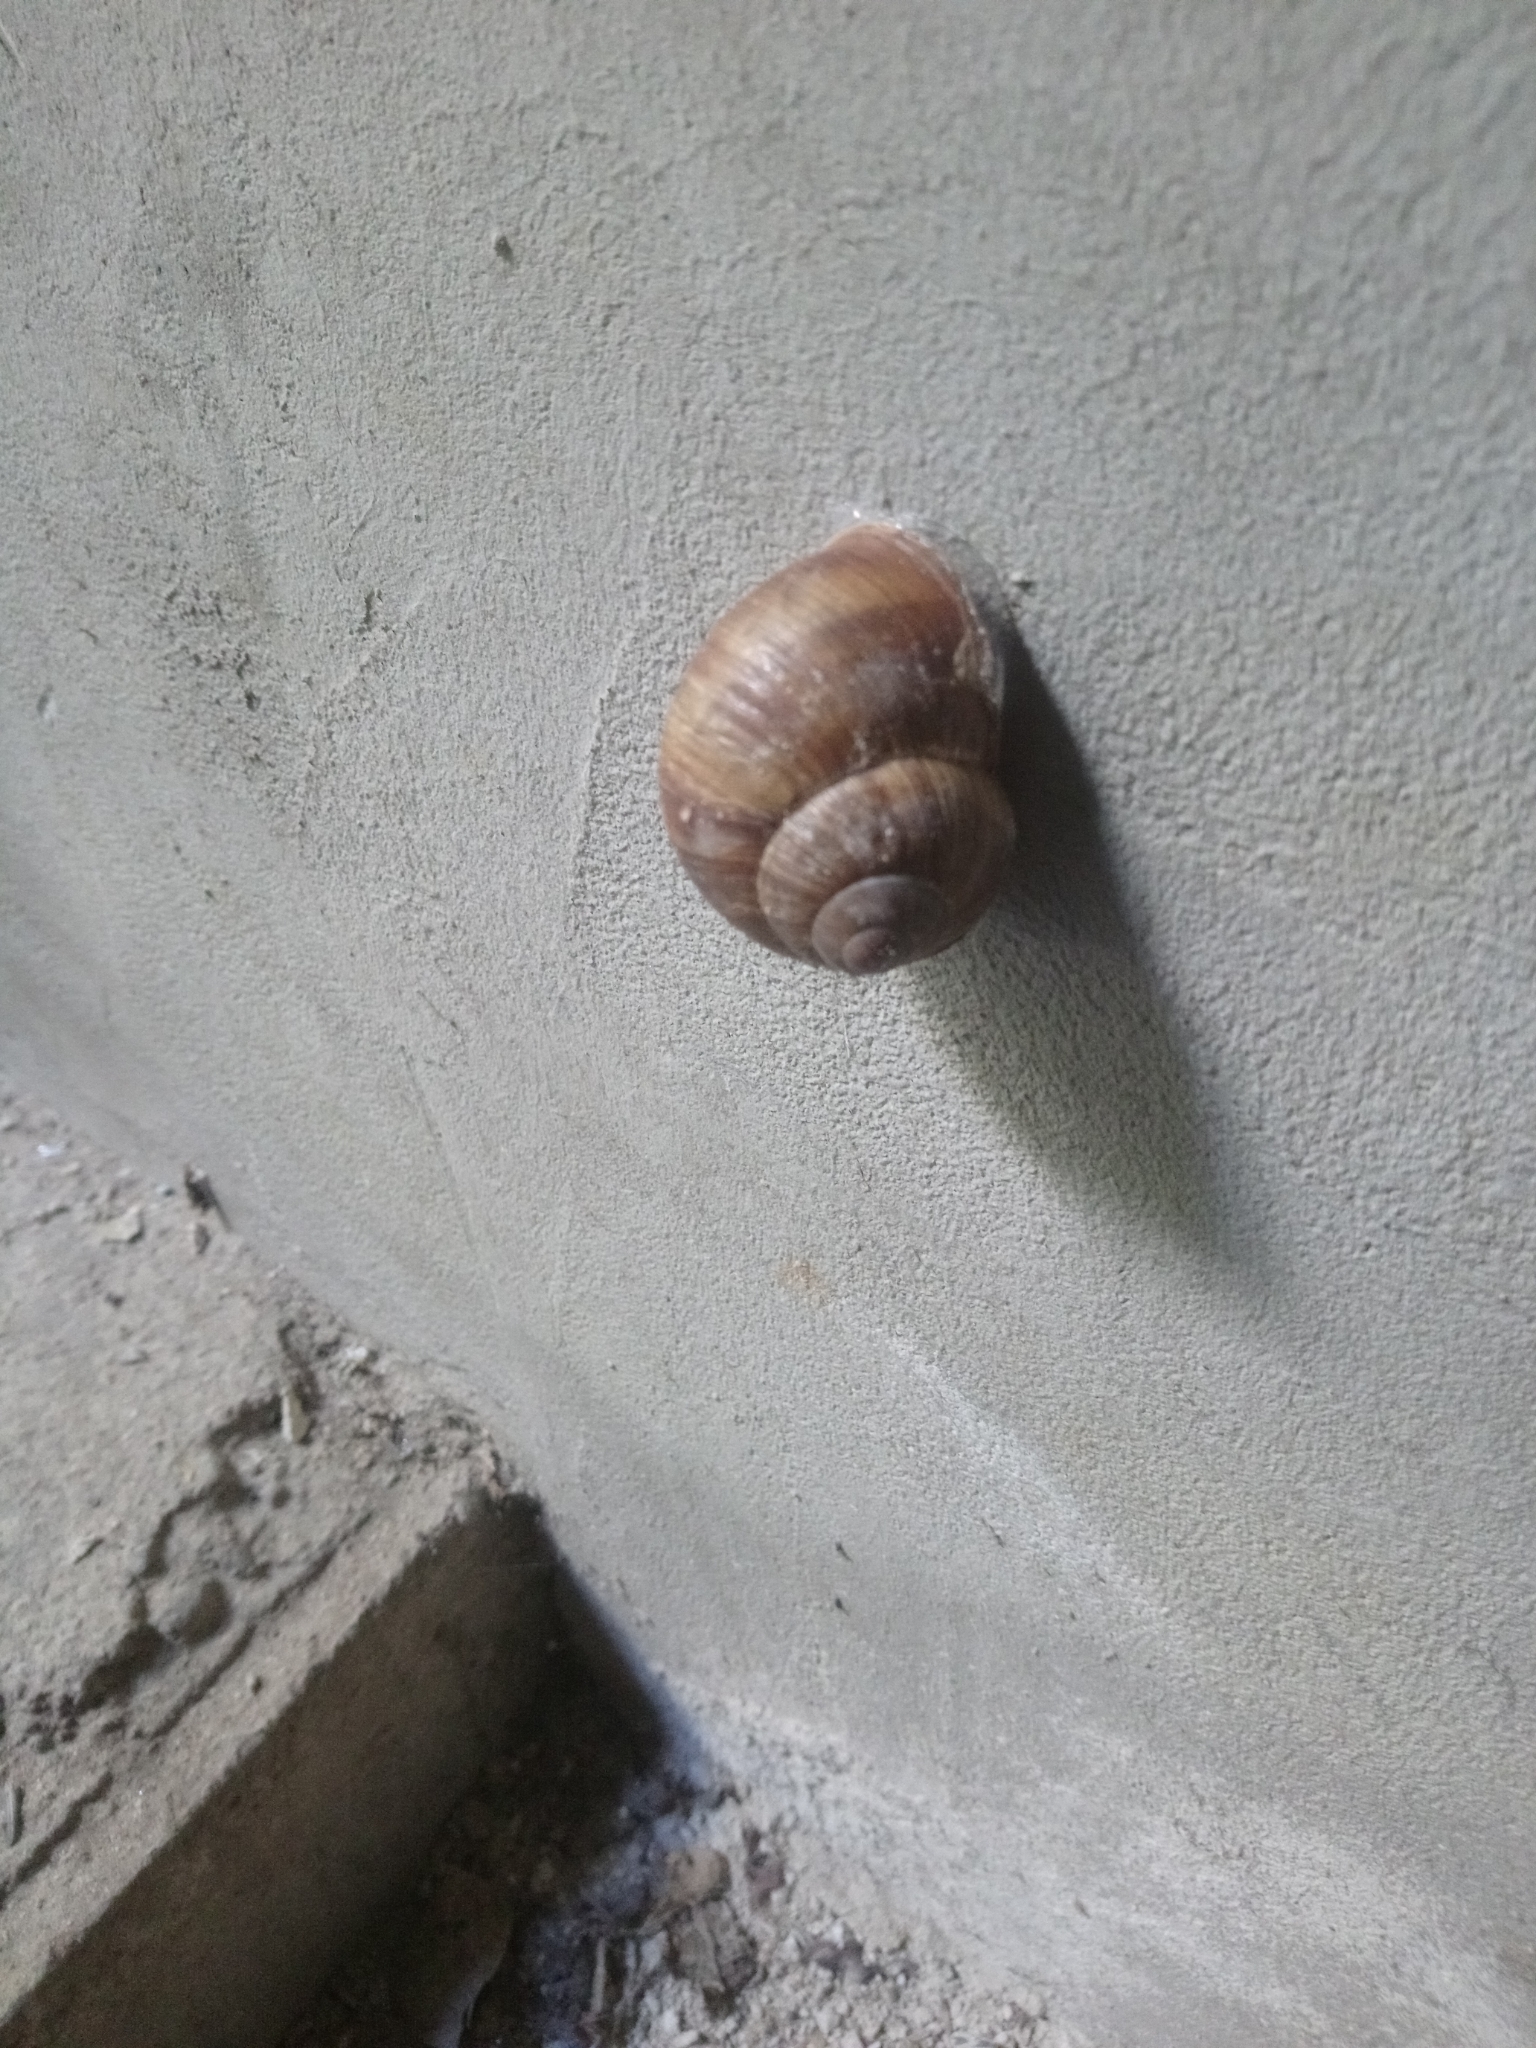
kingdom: Animalia
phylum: Mollusca
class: Gastropoda
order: Stylommatophora
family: Helicidae
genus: Helix
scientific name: Helix pomatia
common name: Roman snail
